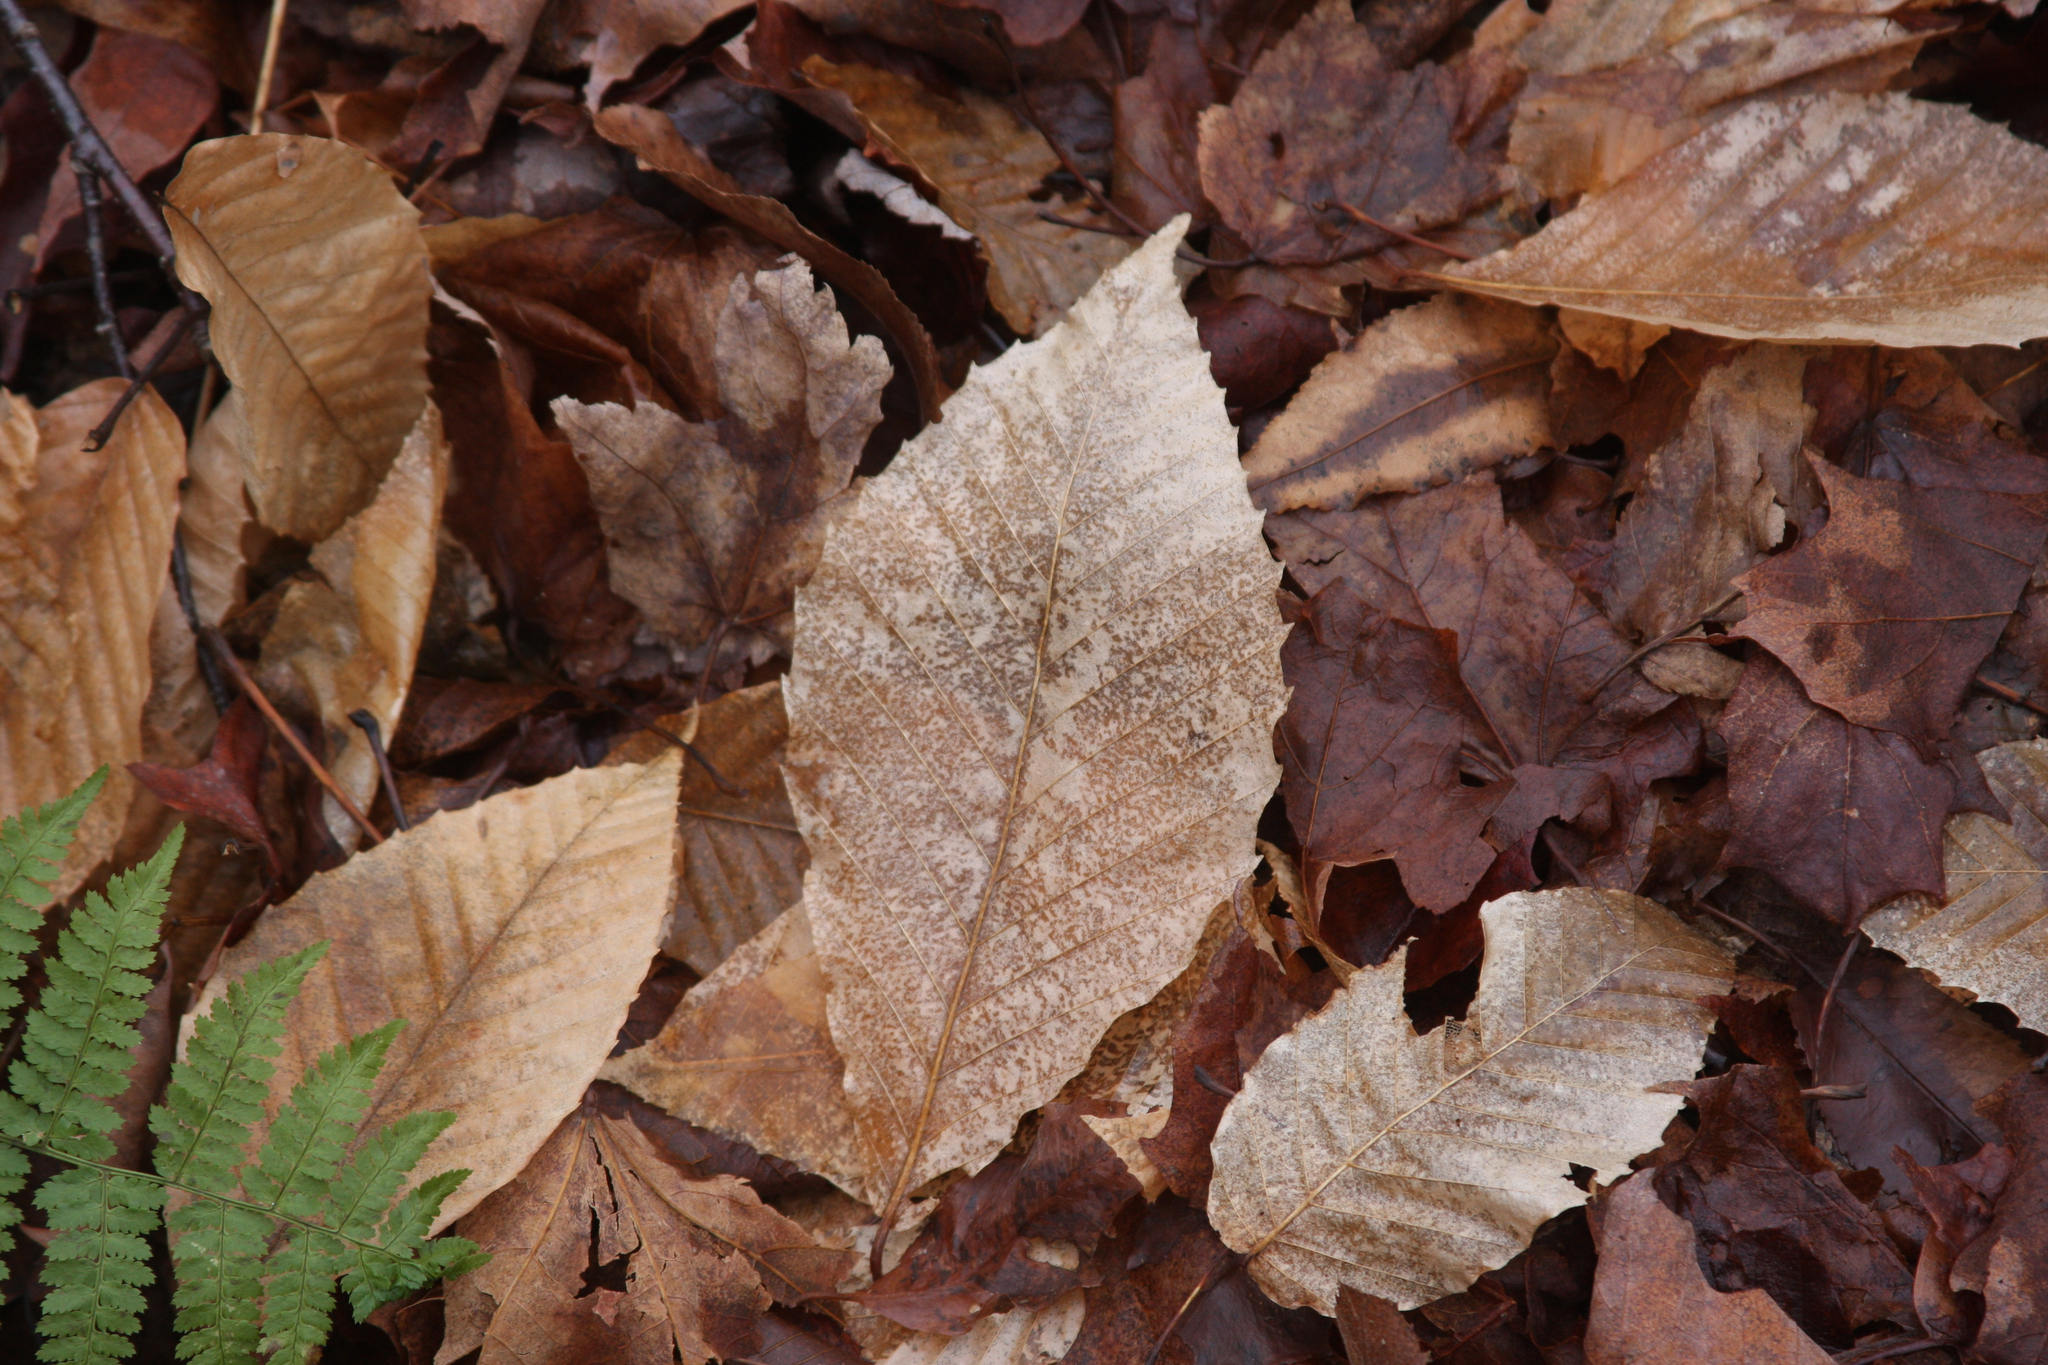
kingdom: Plantae
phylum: Tracheophyta
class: Magnoliopsida
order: Fagales
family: Fagaceae
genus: Fagus
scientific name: Fagus grandifolia
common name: American beech
